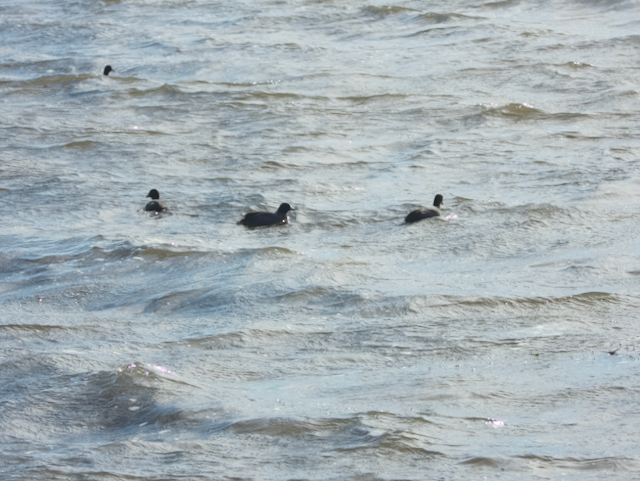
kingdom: Animalia
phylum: Chordata
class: Aves
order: Gruiformes
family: Rallidae
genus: Fulica
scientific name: Fulica americana
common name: American coot
